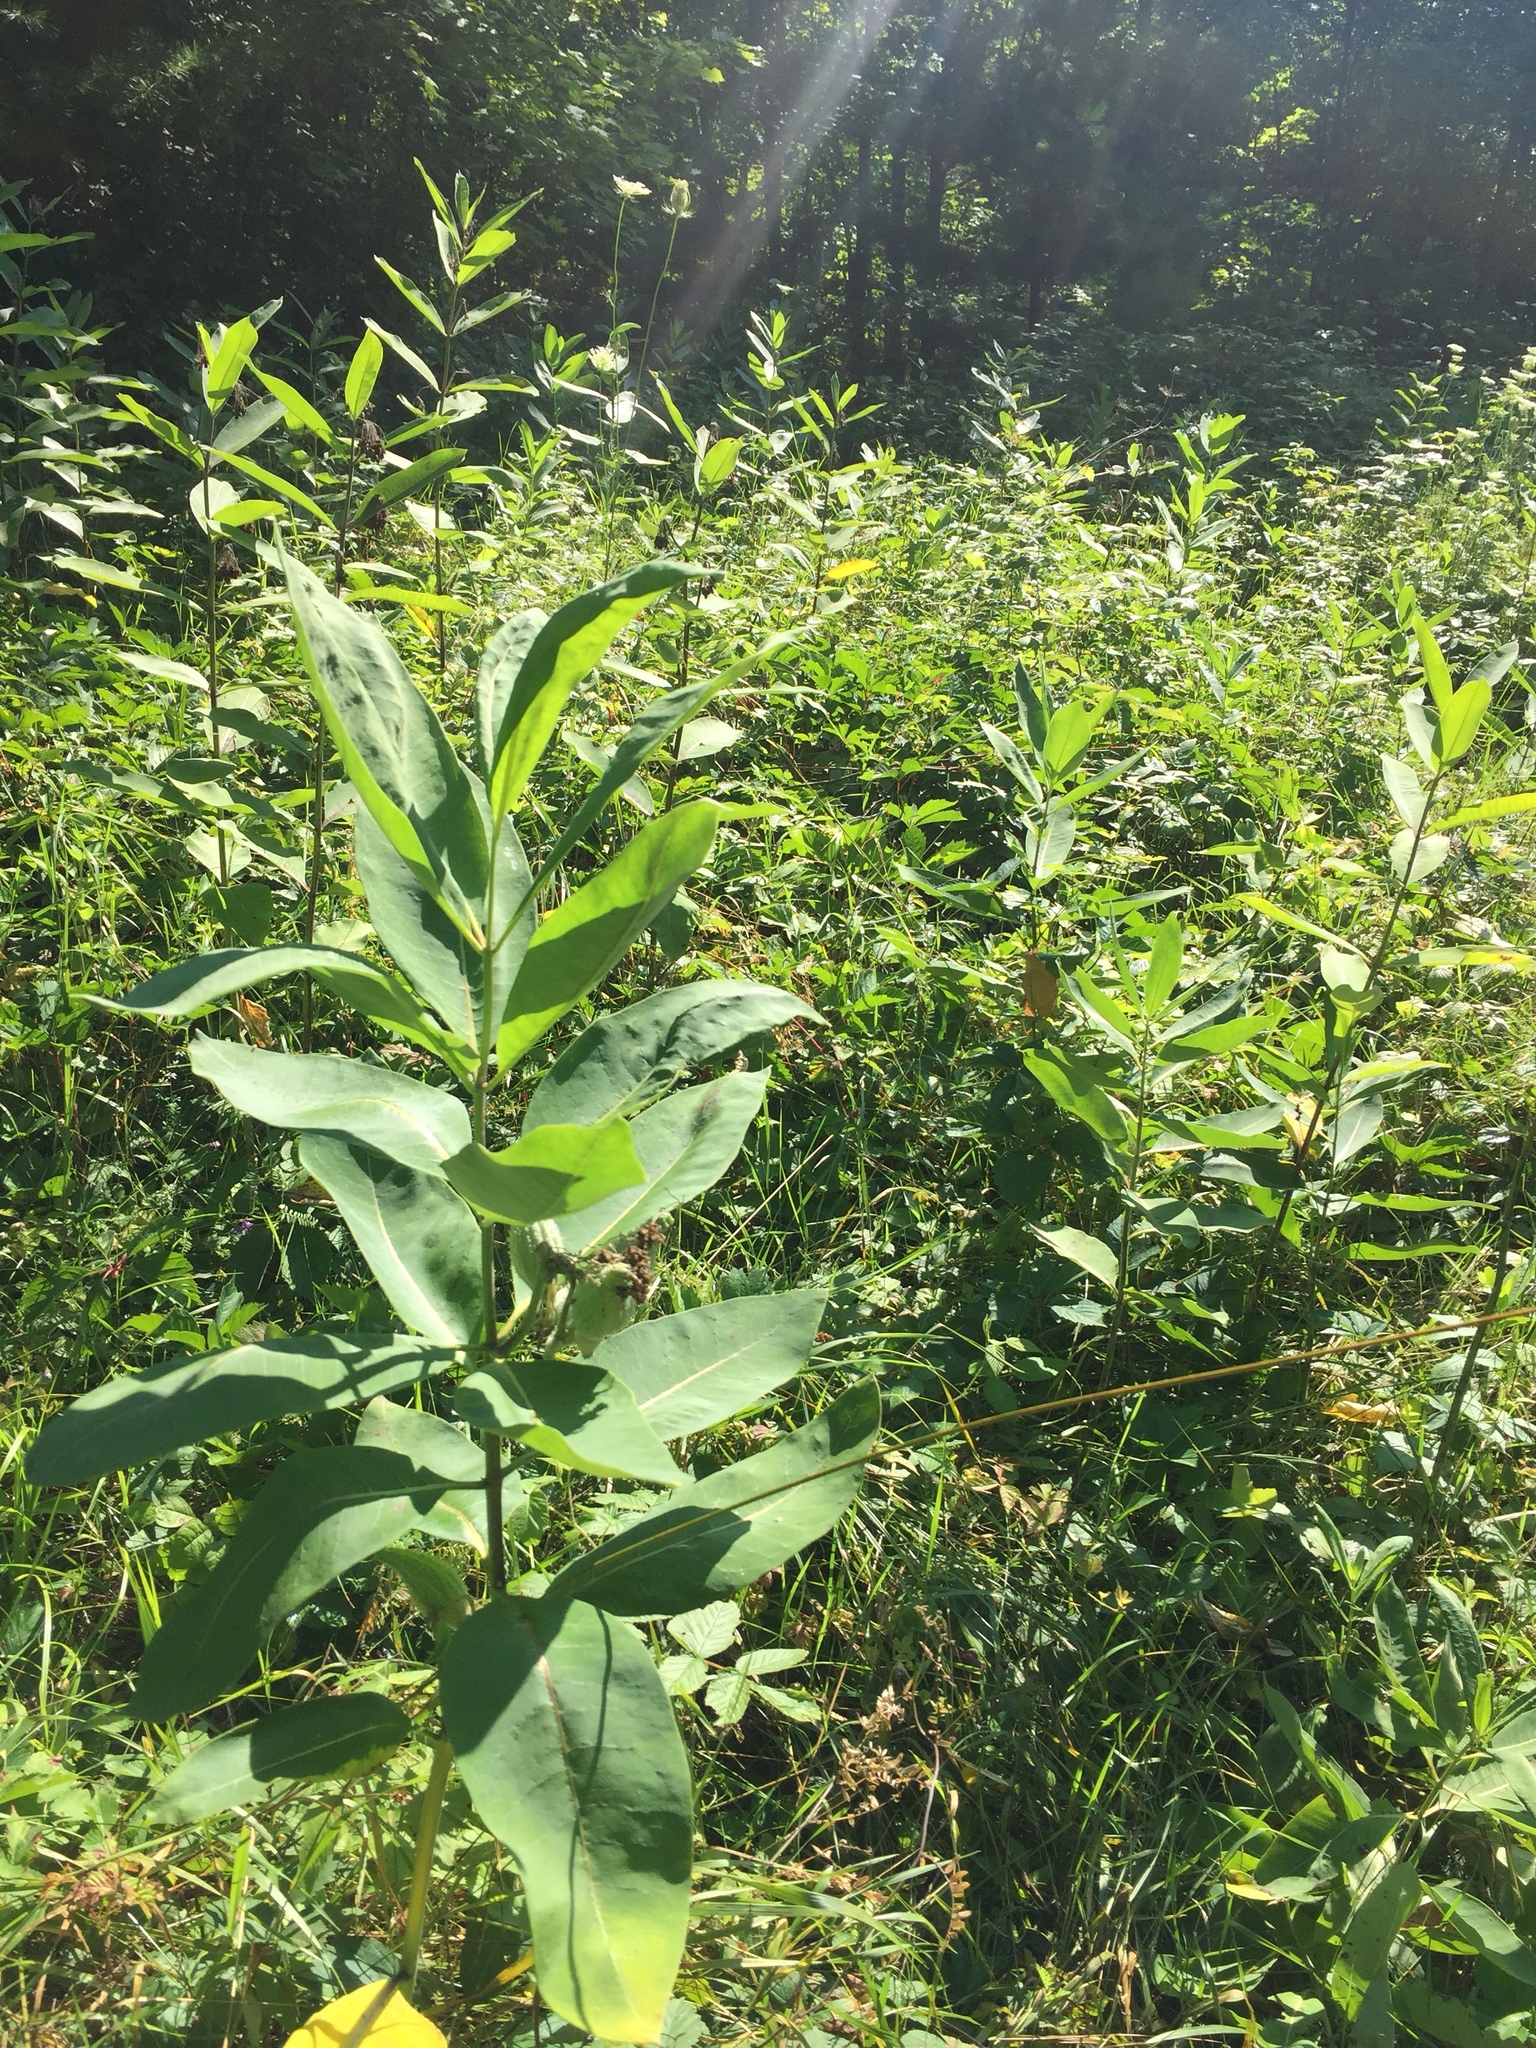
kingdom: Plantae
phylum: Tracheophyta
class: Magnoliopsida
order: Gentianales
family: Apocynaceae
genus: Asclepias
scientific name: Asclepias syriaca
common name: Common milkweed
